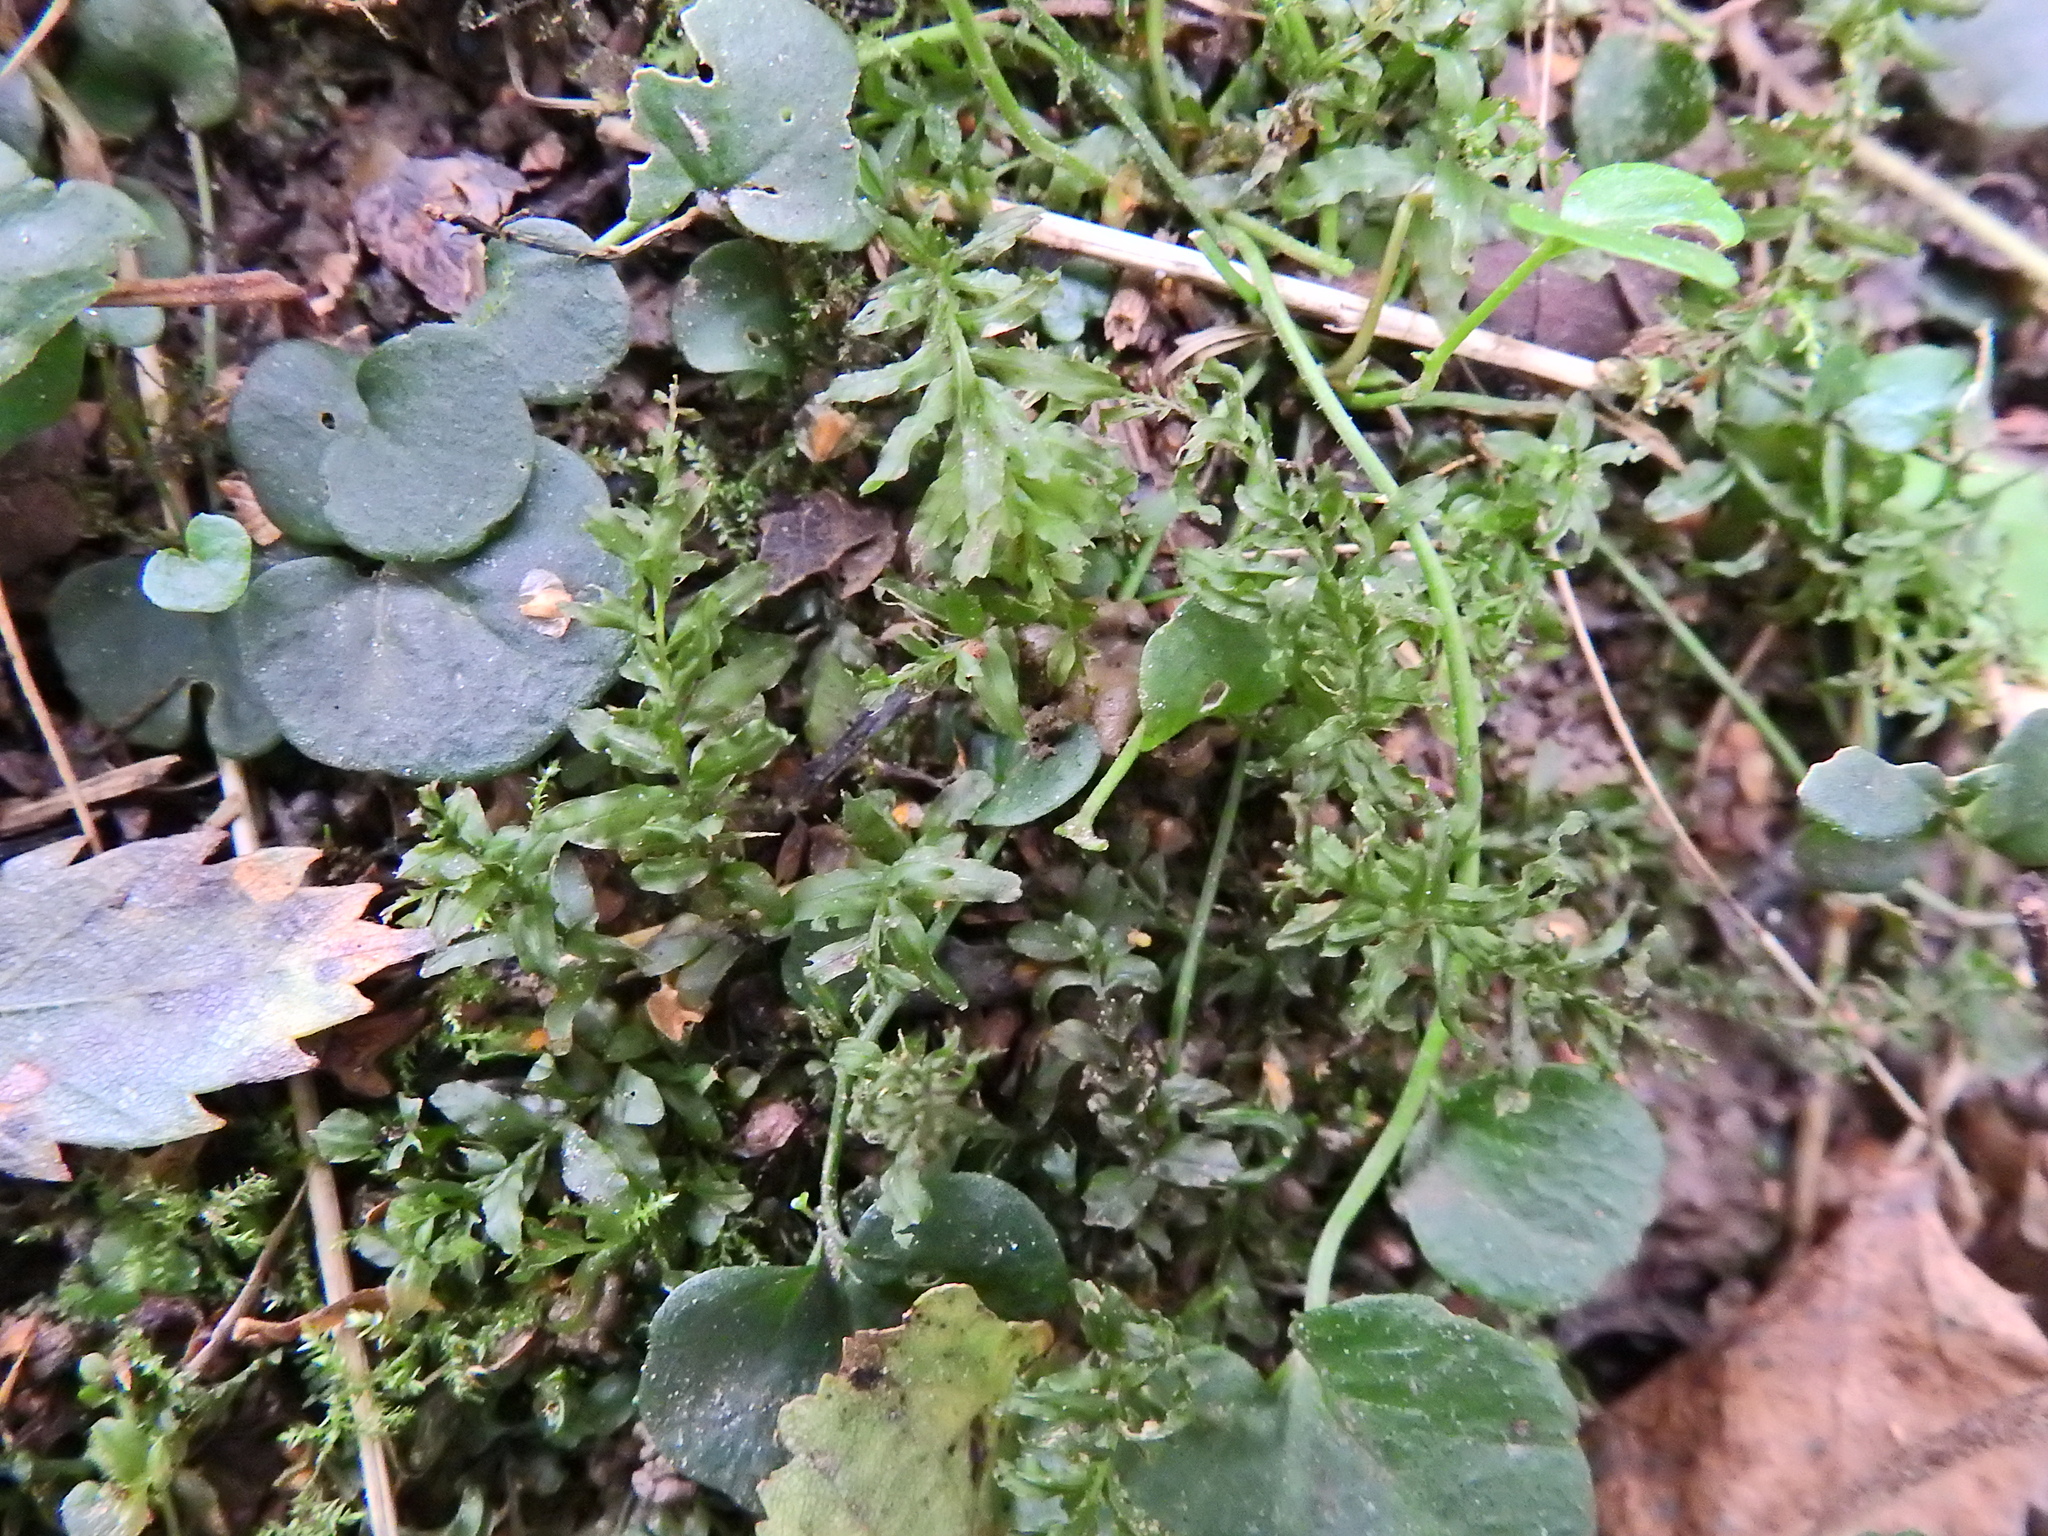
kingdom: Plantae
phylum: Bryophyta
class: Bryopsida
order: Bryales
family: Mniaceae
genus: Plagiomnium
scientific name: Plagiomnium undulatum
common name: Hart's-tongue thyme-moss
